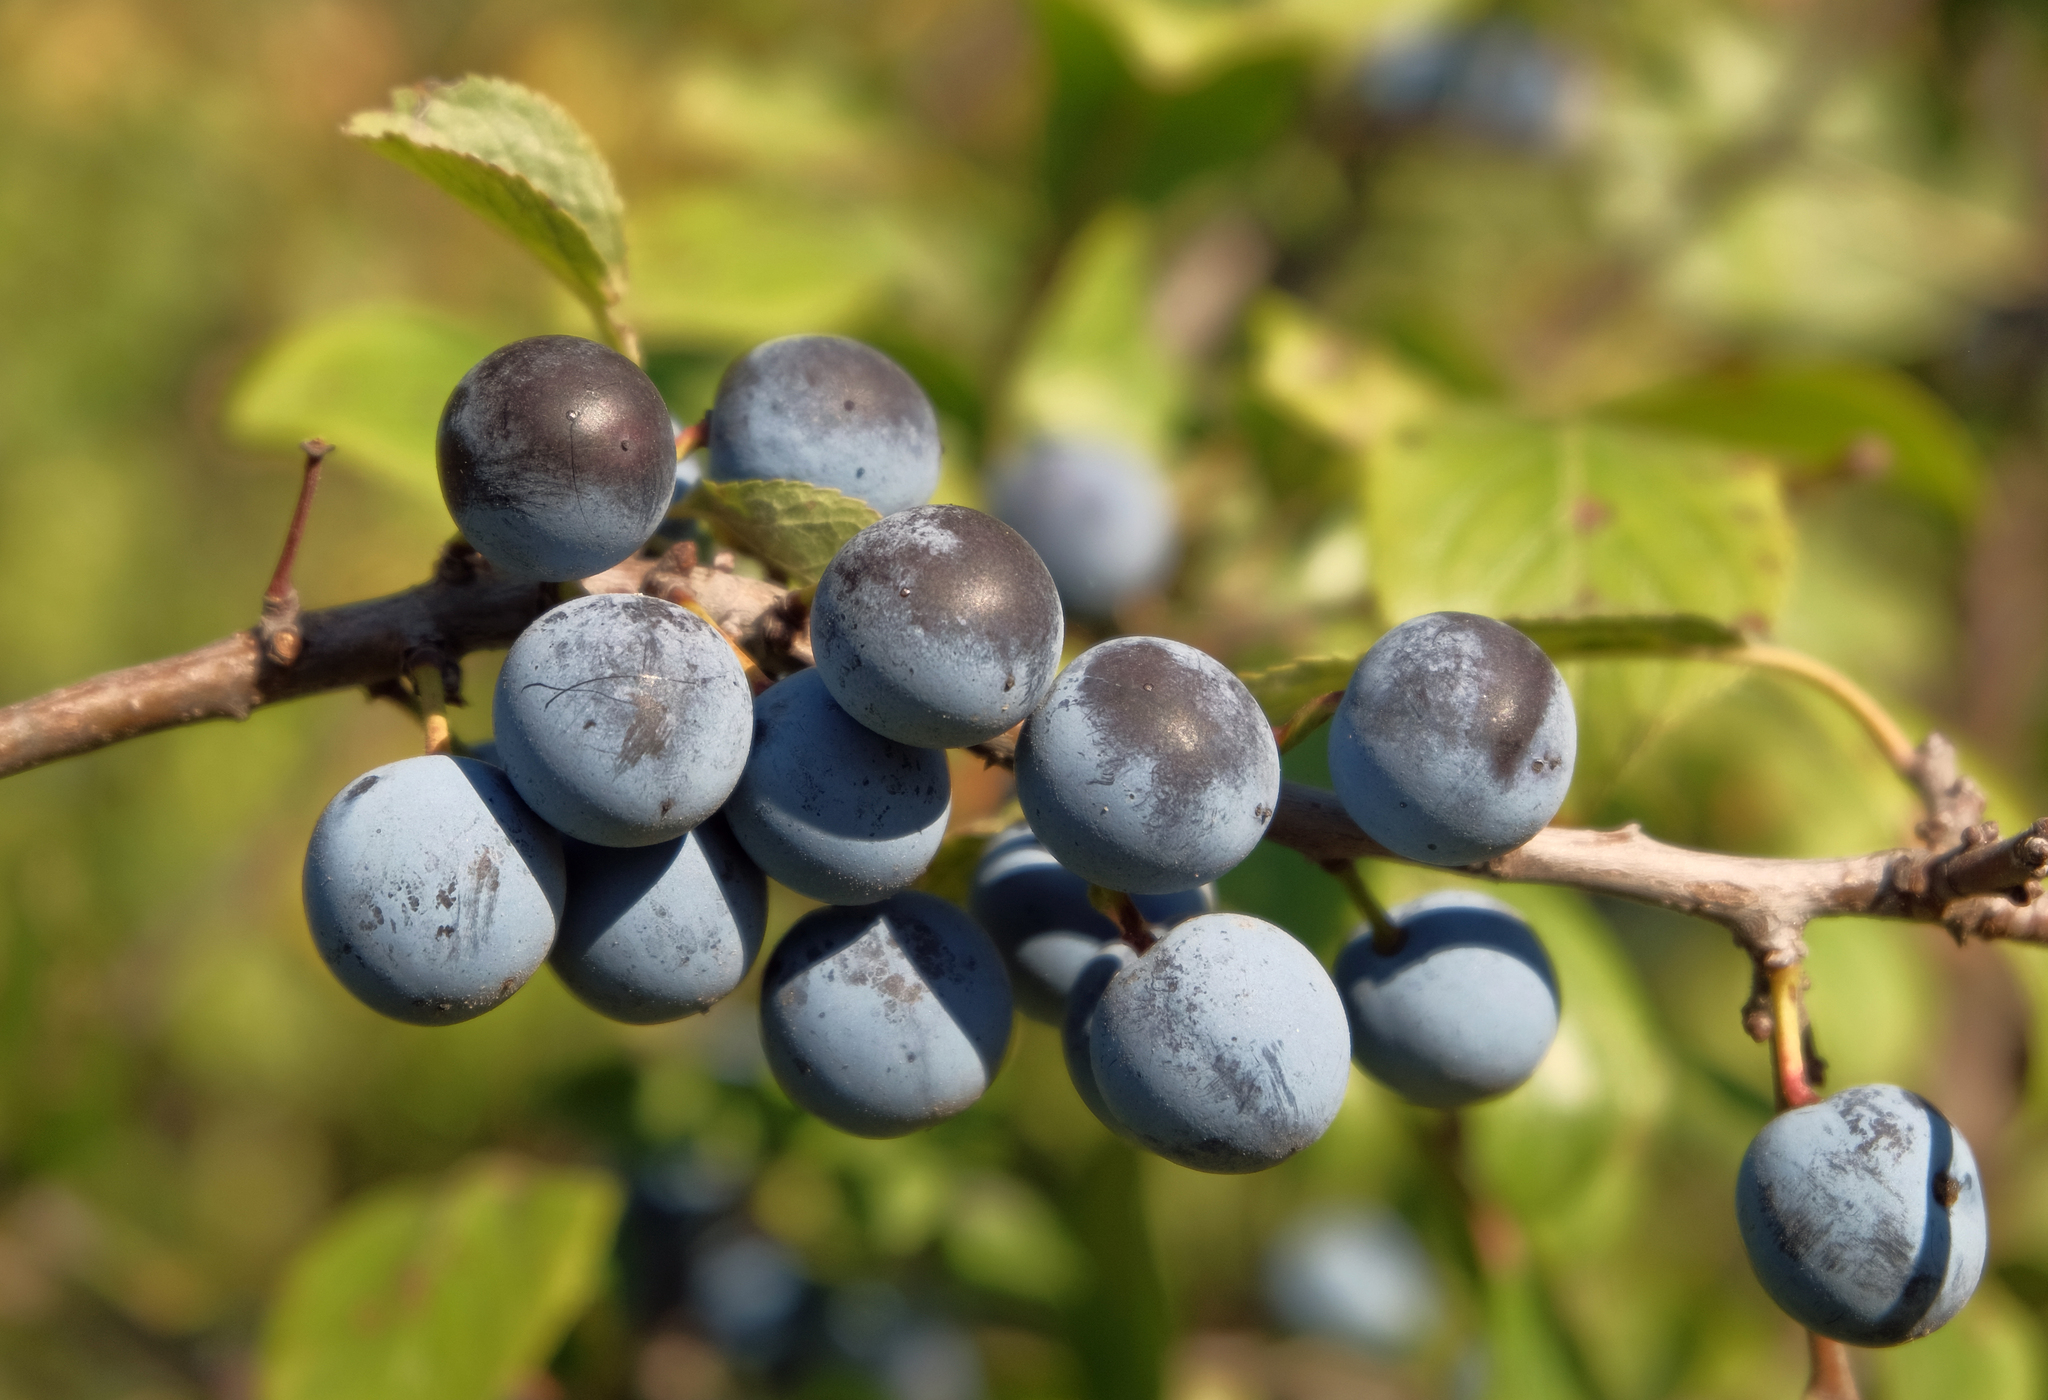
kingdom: Plantae
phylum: Tracheophyta
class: Magnoliopsida
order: Rosales
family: Rosaceae
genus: Prunus
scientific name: Prunus spinosa
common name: Blackthorn
